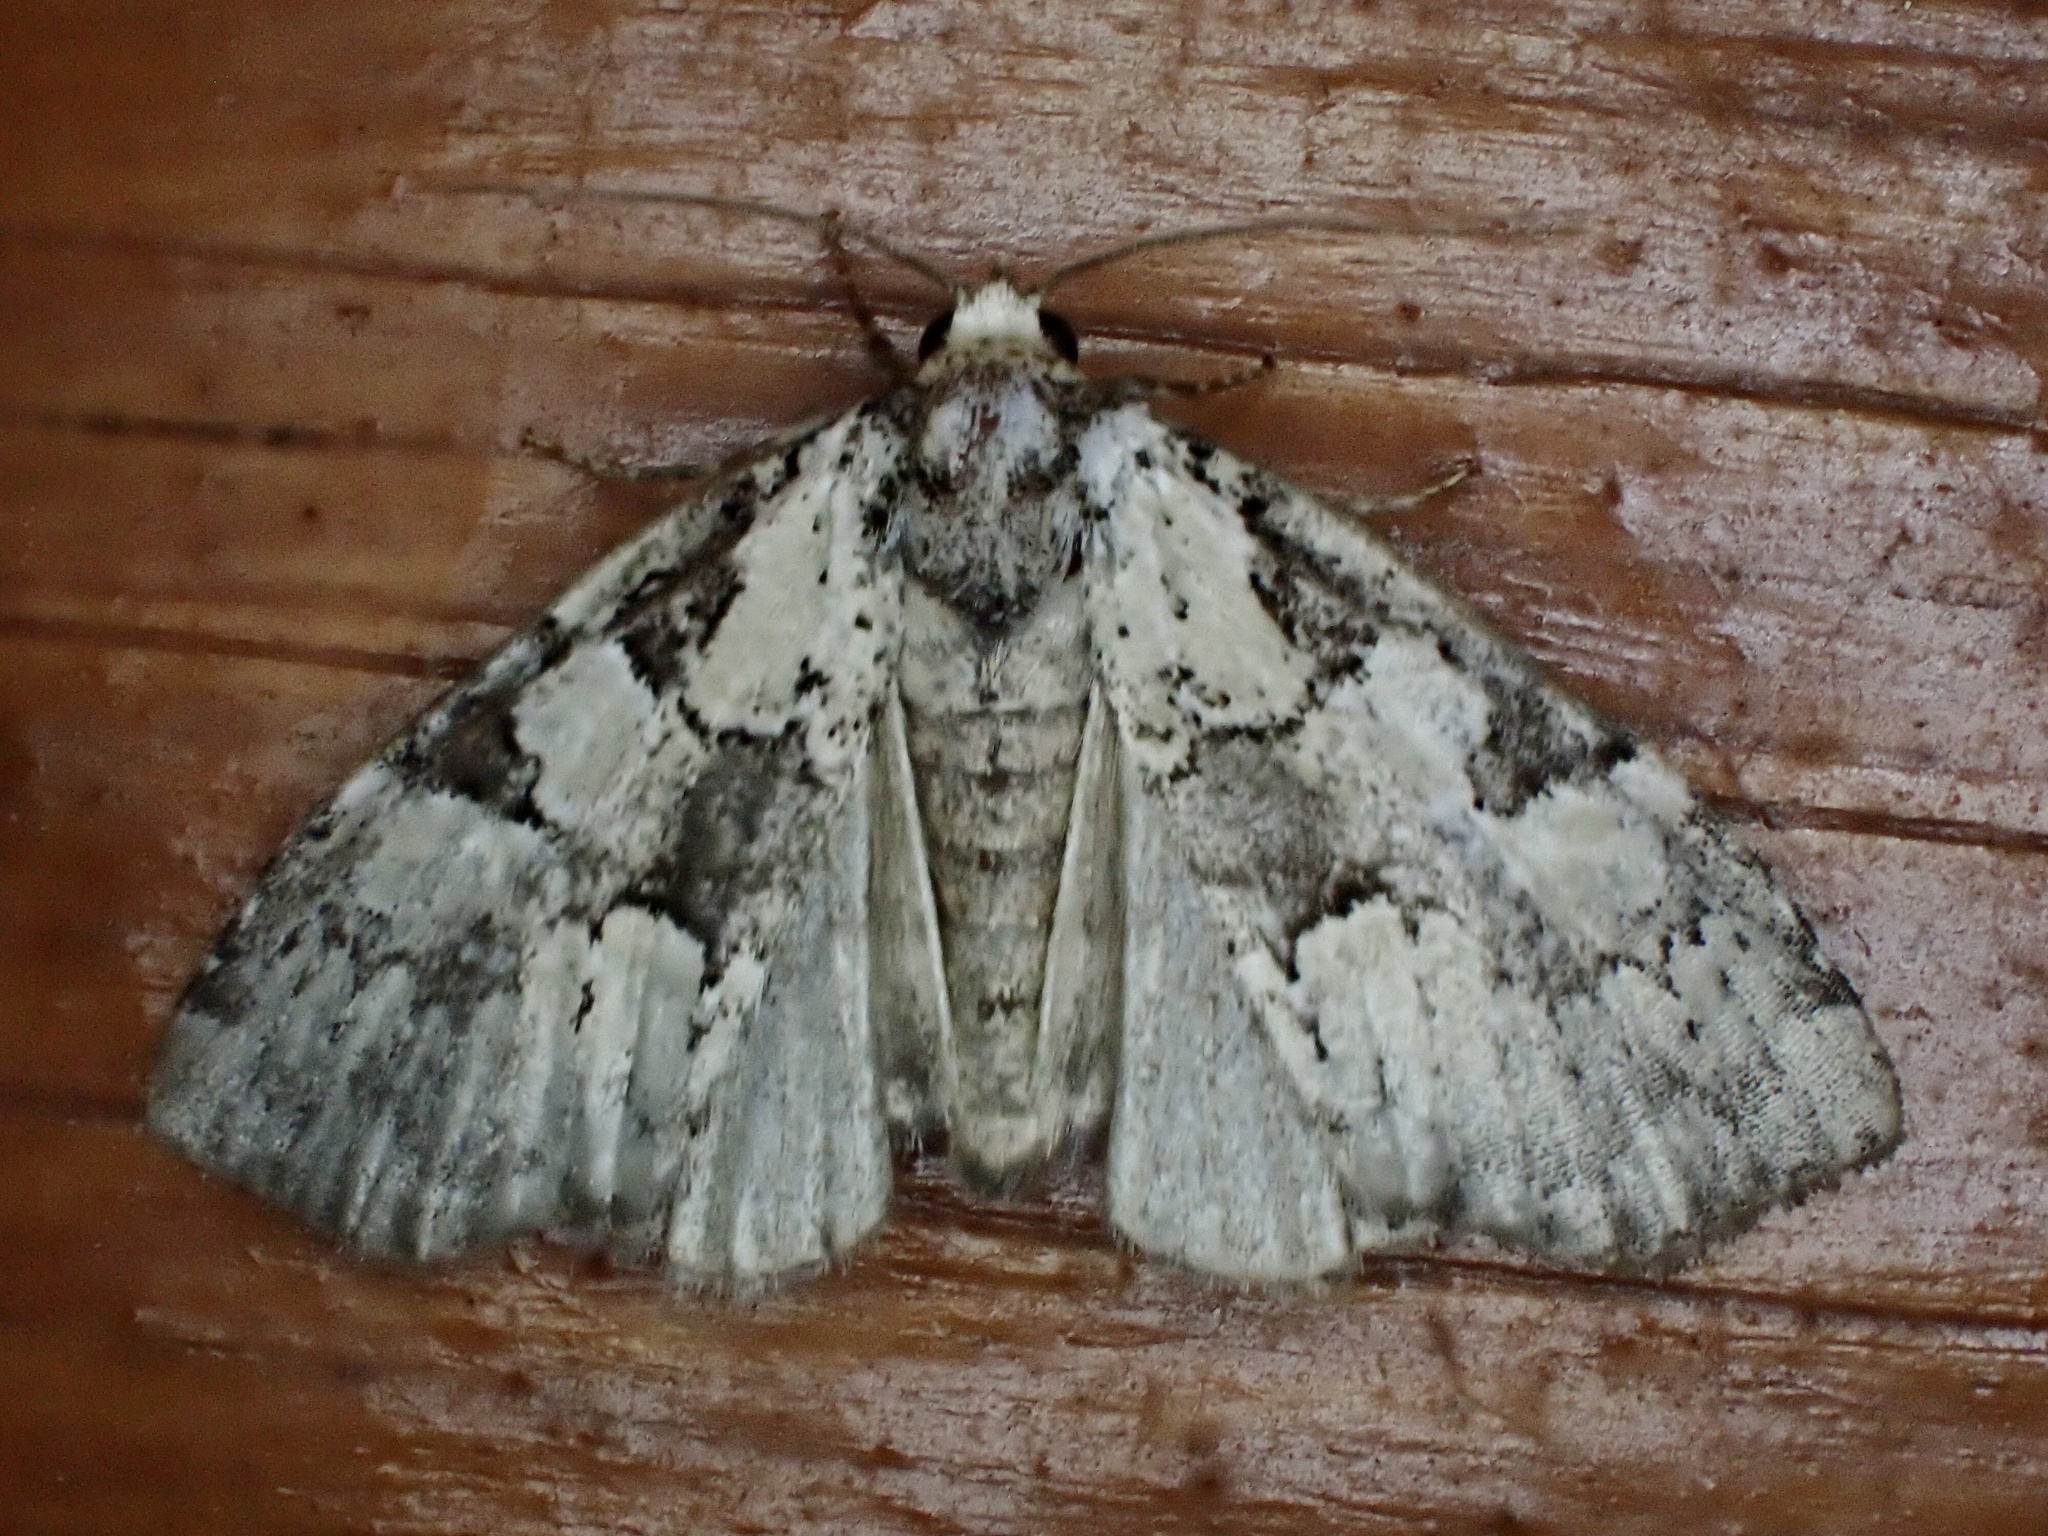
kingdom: Animalia
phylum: Arthropoda
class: Insecta
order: Lepidoptera
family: Noctuidae
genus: Leuconycta
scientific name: Leuconycta lepidula
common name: Marbled-green leuconycta moth
